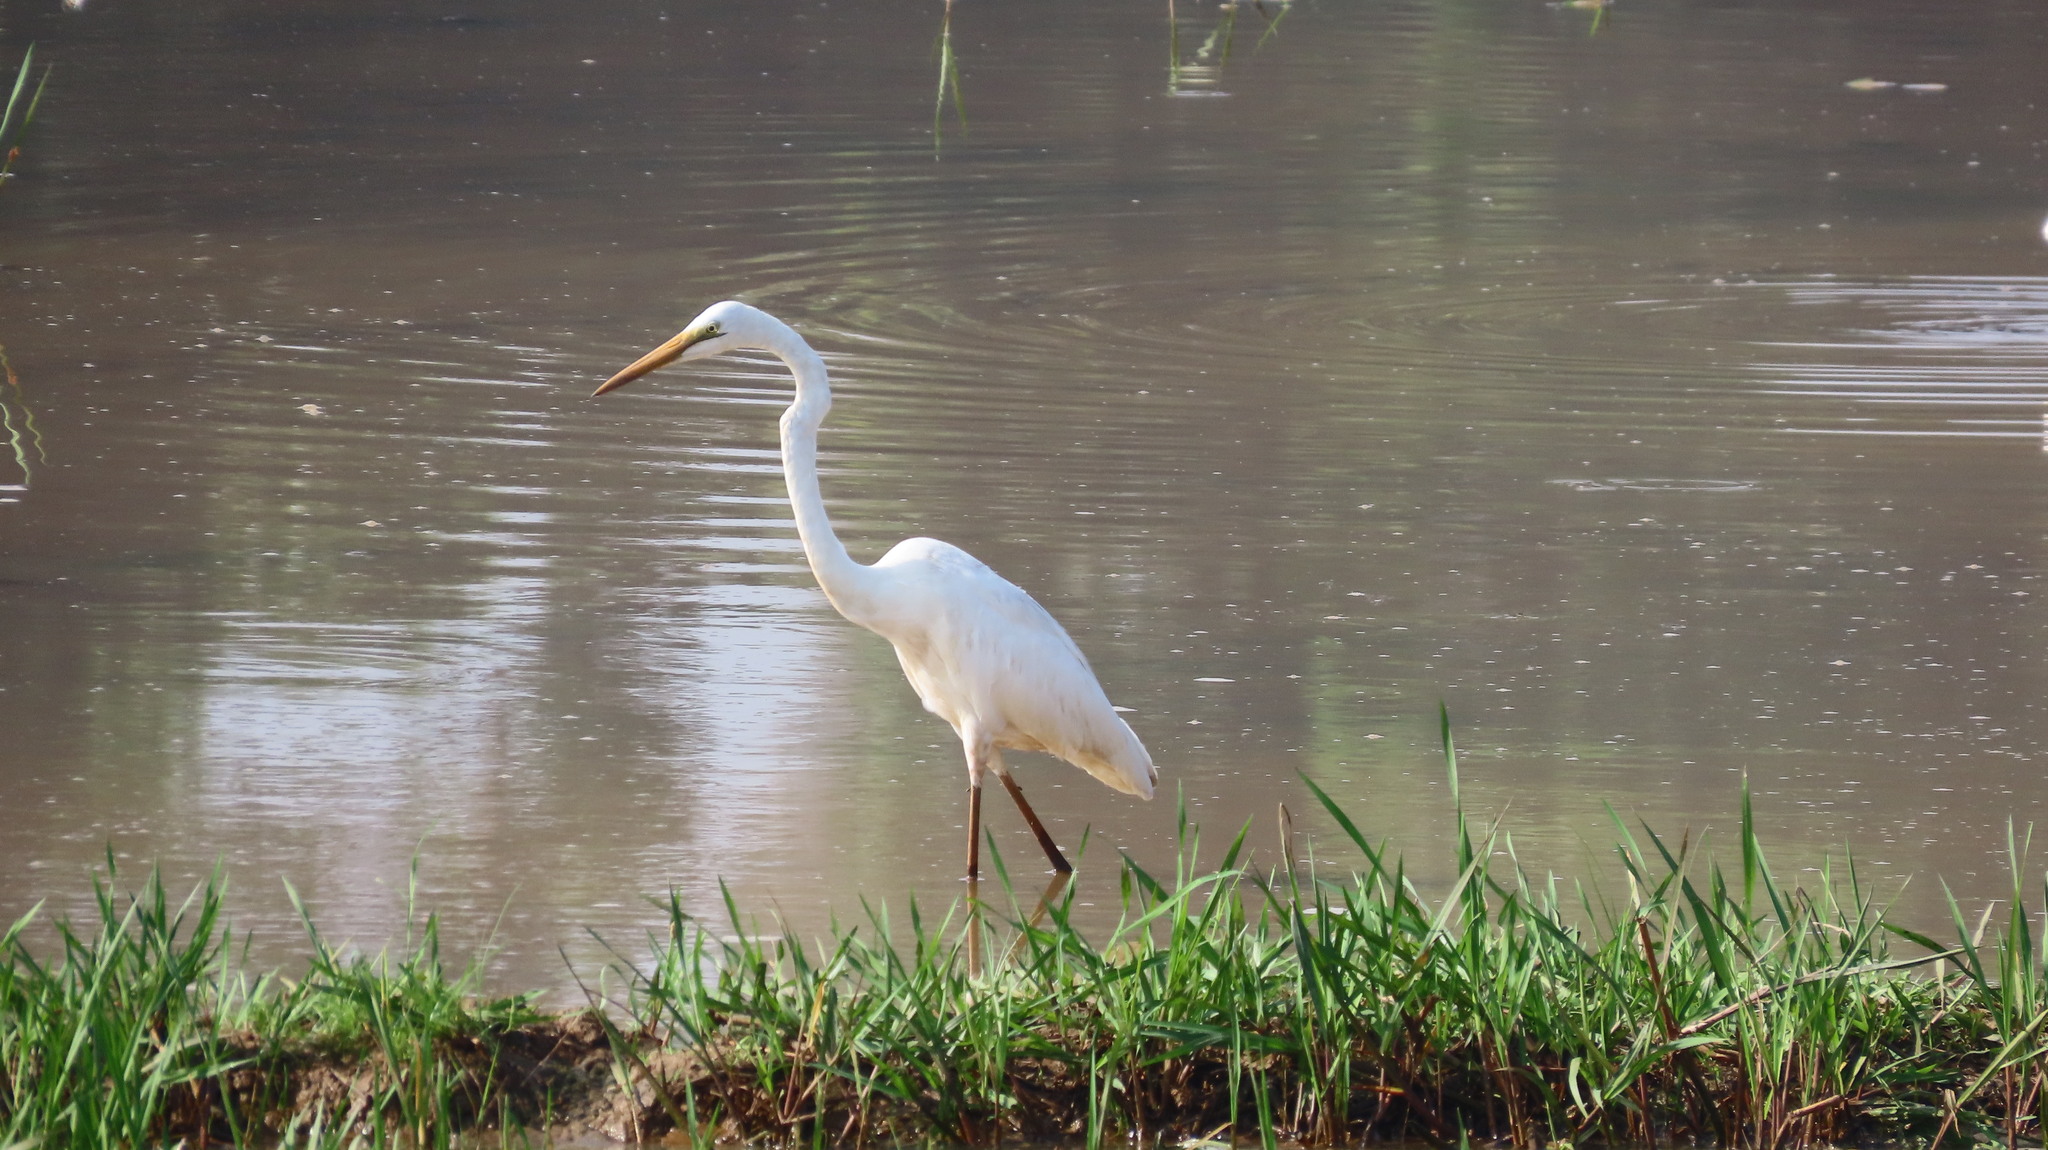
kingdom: Animalia
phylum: Chordata
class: Aves
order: Pelecaniformes
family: Ardeidae
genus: Ardea
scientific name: Ardea alba
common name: Great egret
